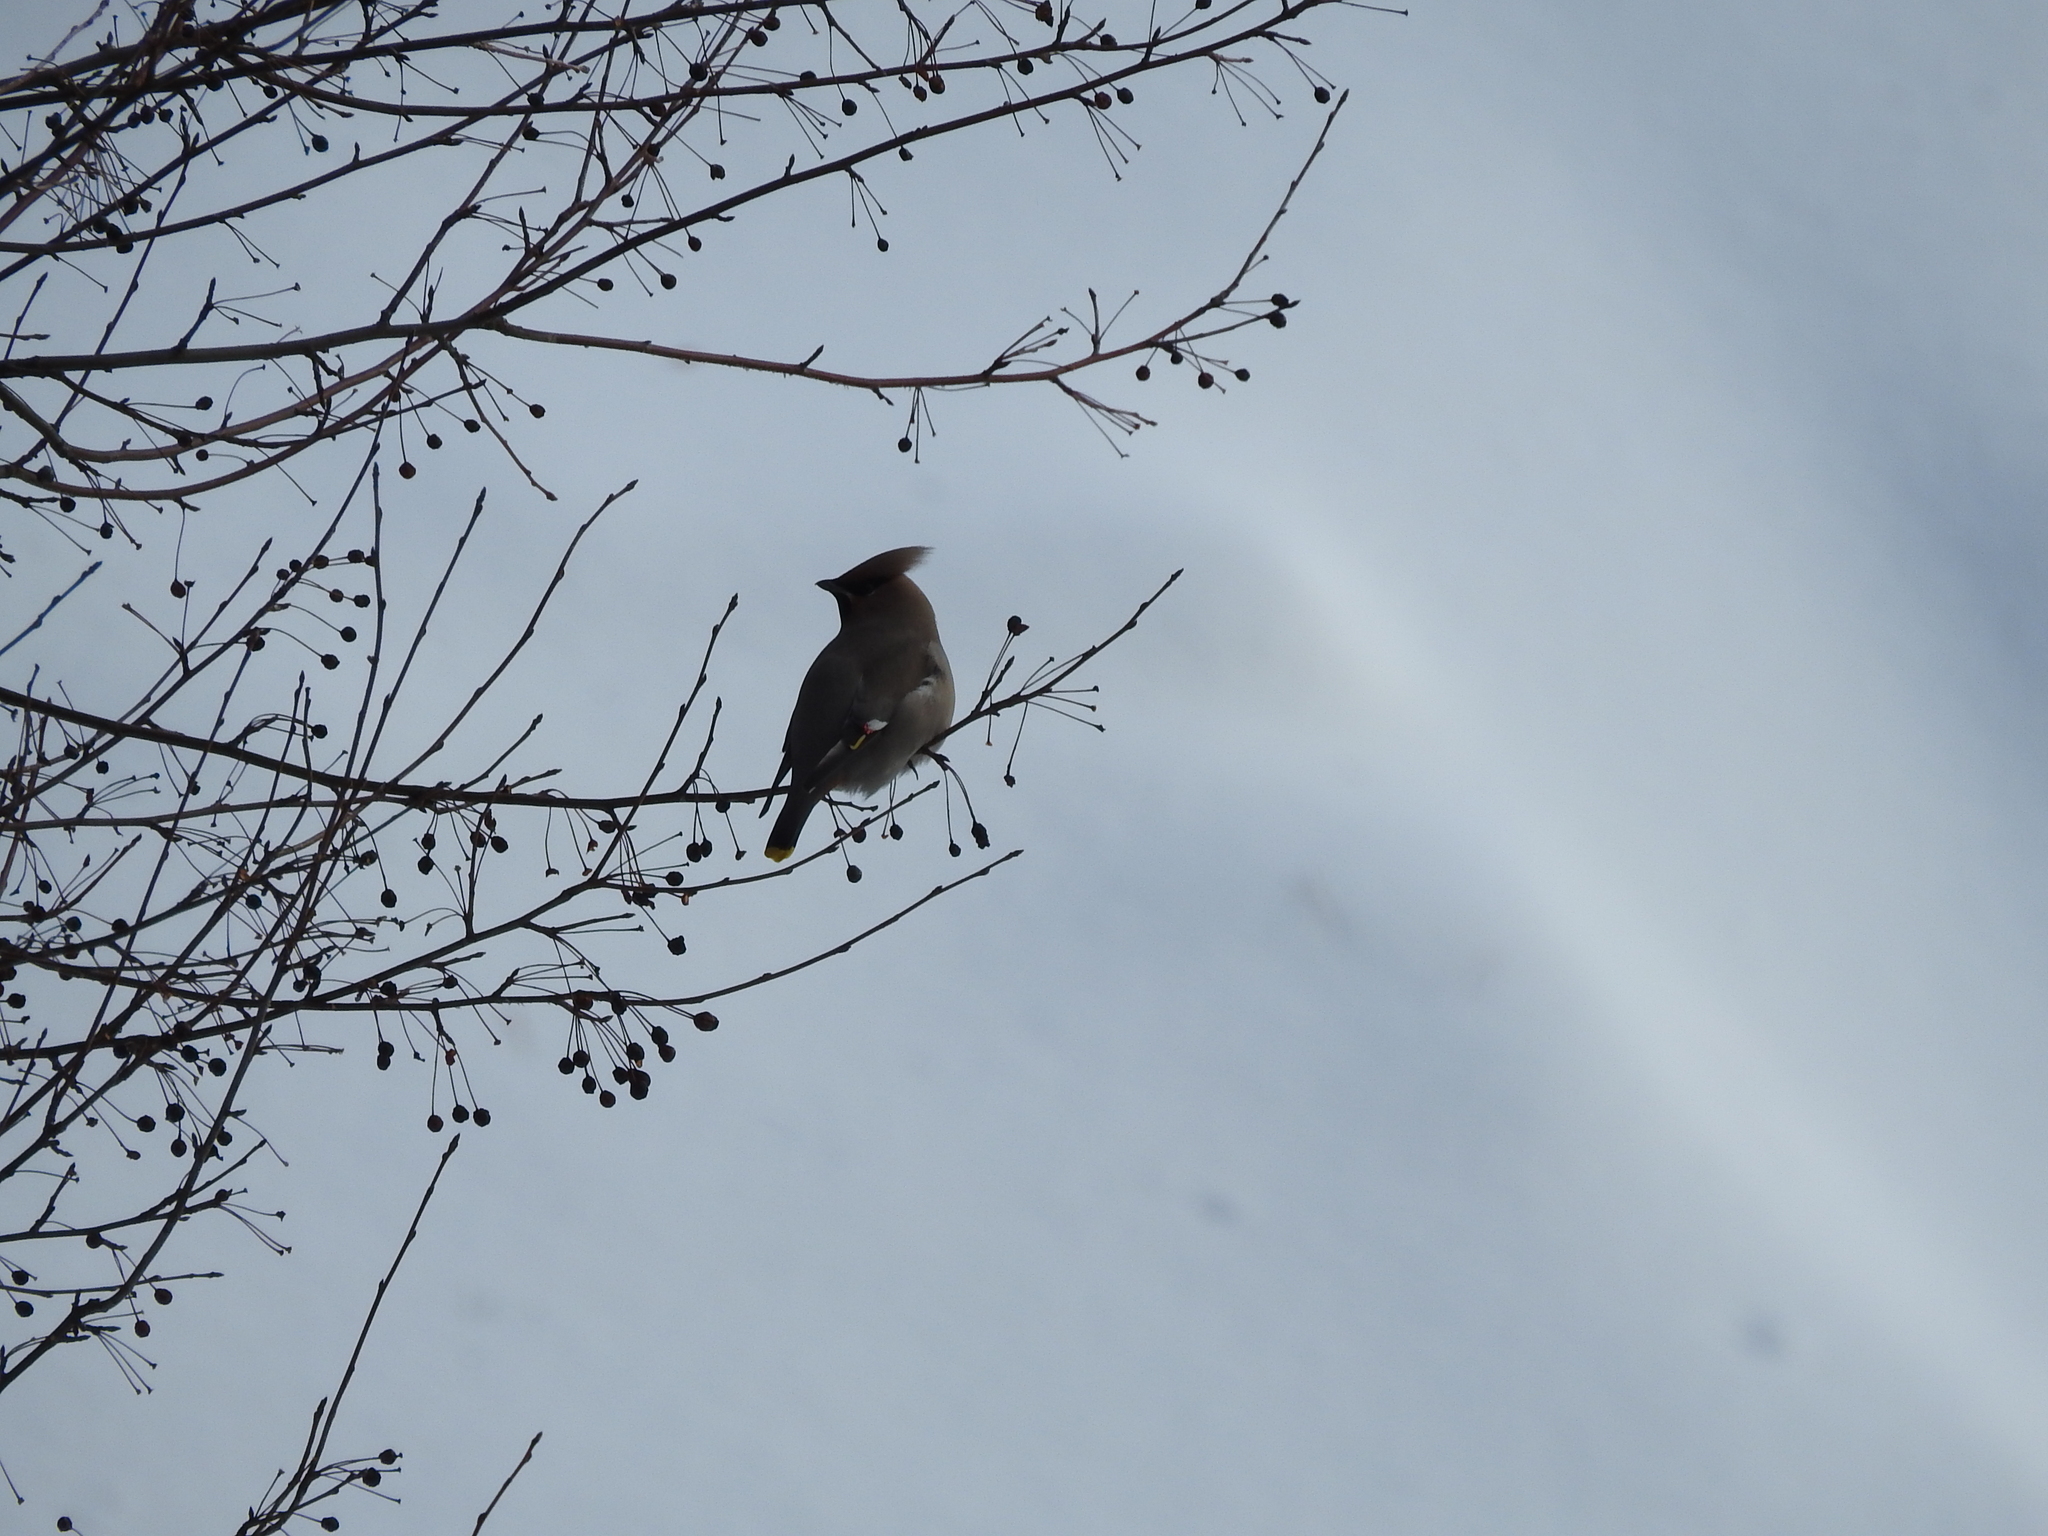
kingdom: Animalia
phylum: Chordata
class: Aves
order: Passeriformes
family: Bombycillidae
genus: Bombycilla
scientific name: Bombycilla garrulus
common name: Bohemian waxwing
